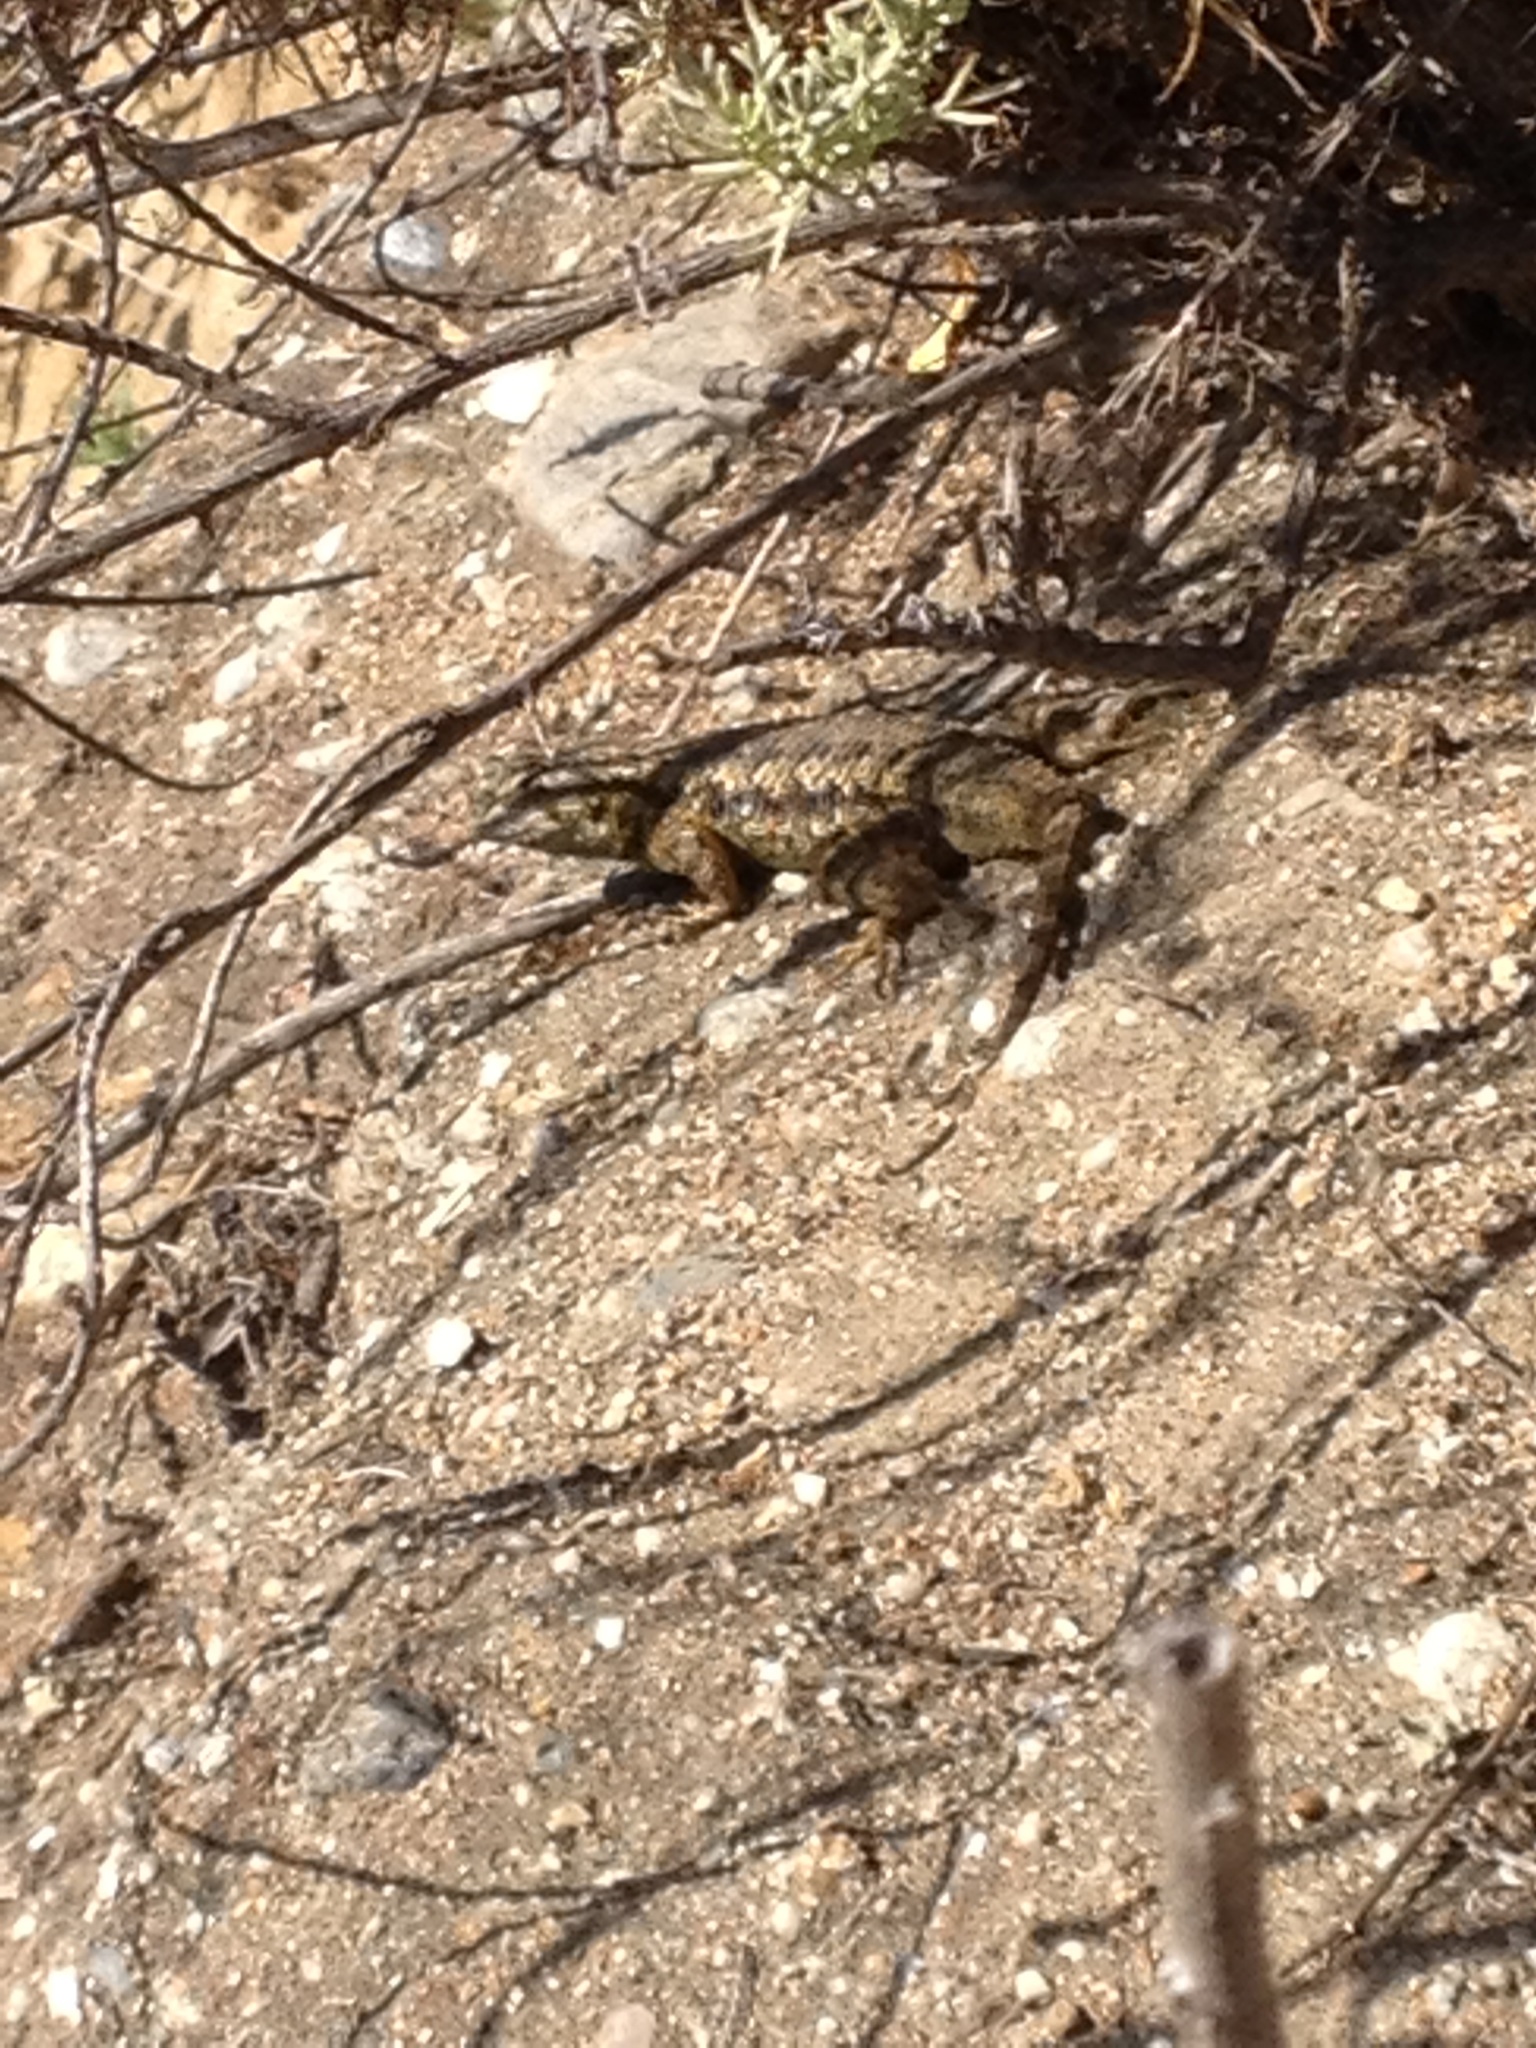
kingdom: Animalia
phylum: Chordata
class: Squamata
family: Phrynosomatidae
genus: Sceloporus
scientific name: Sceloporus occidentalis
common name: Western fence lizard
